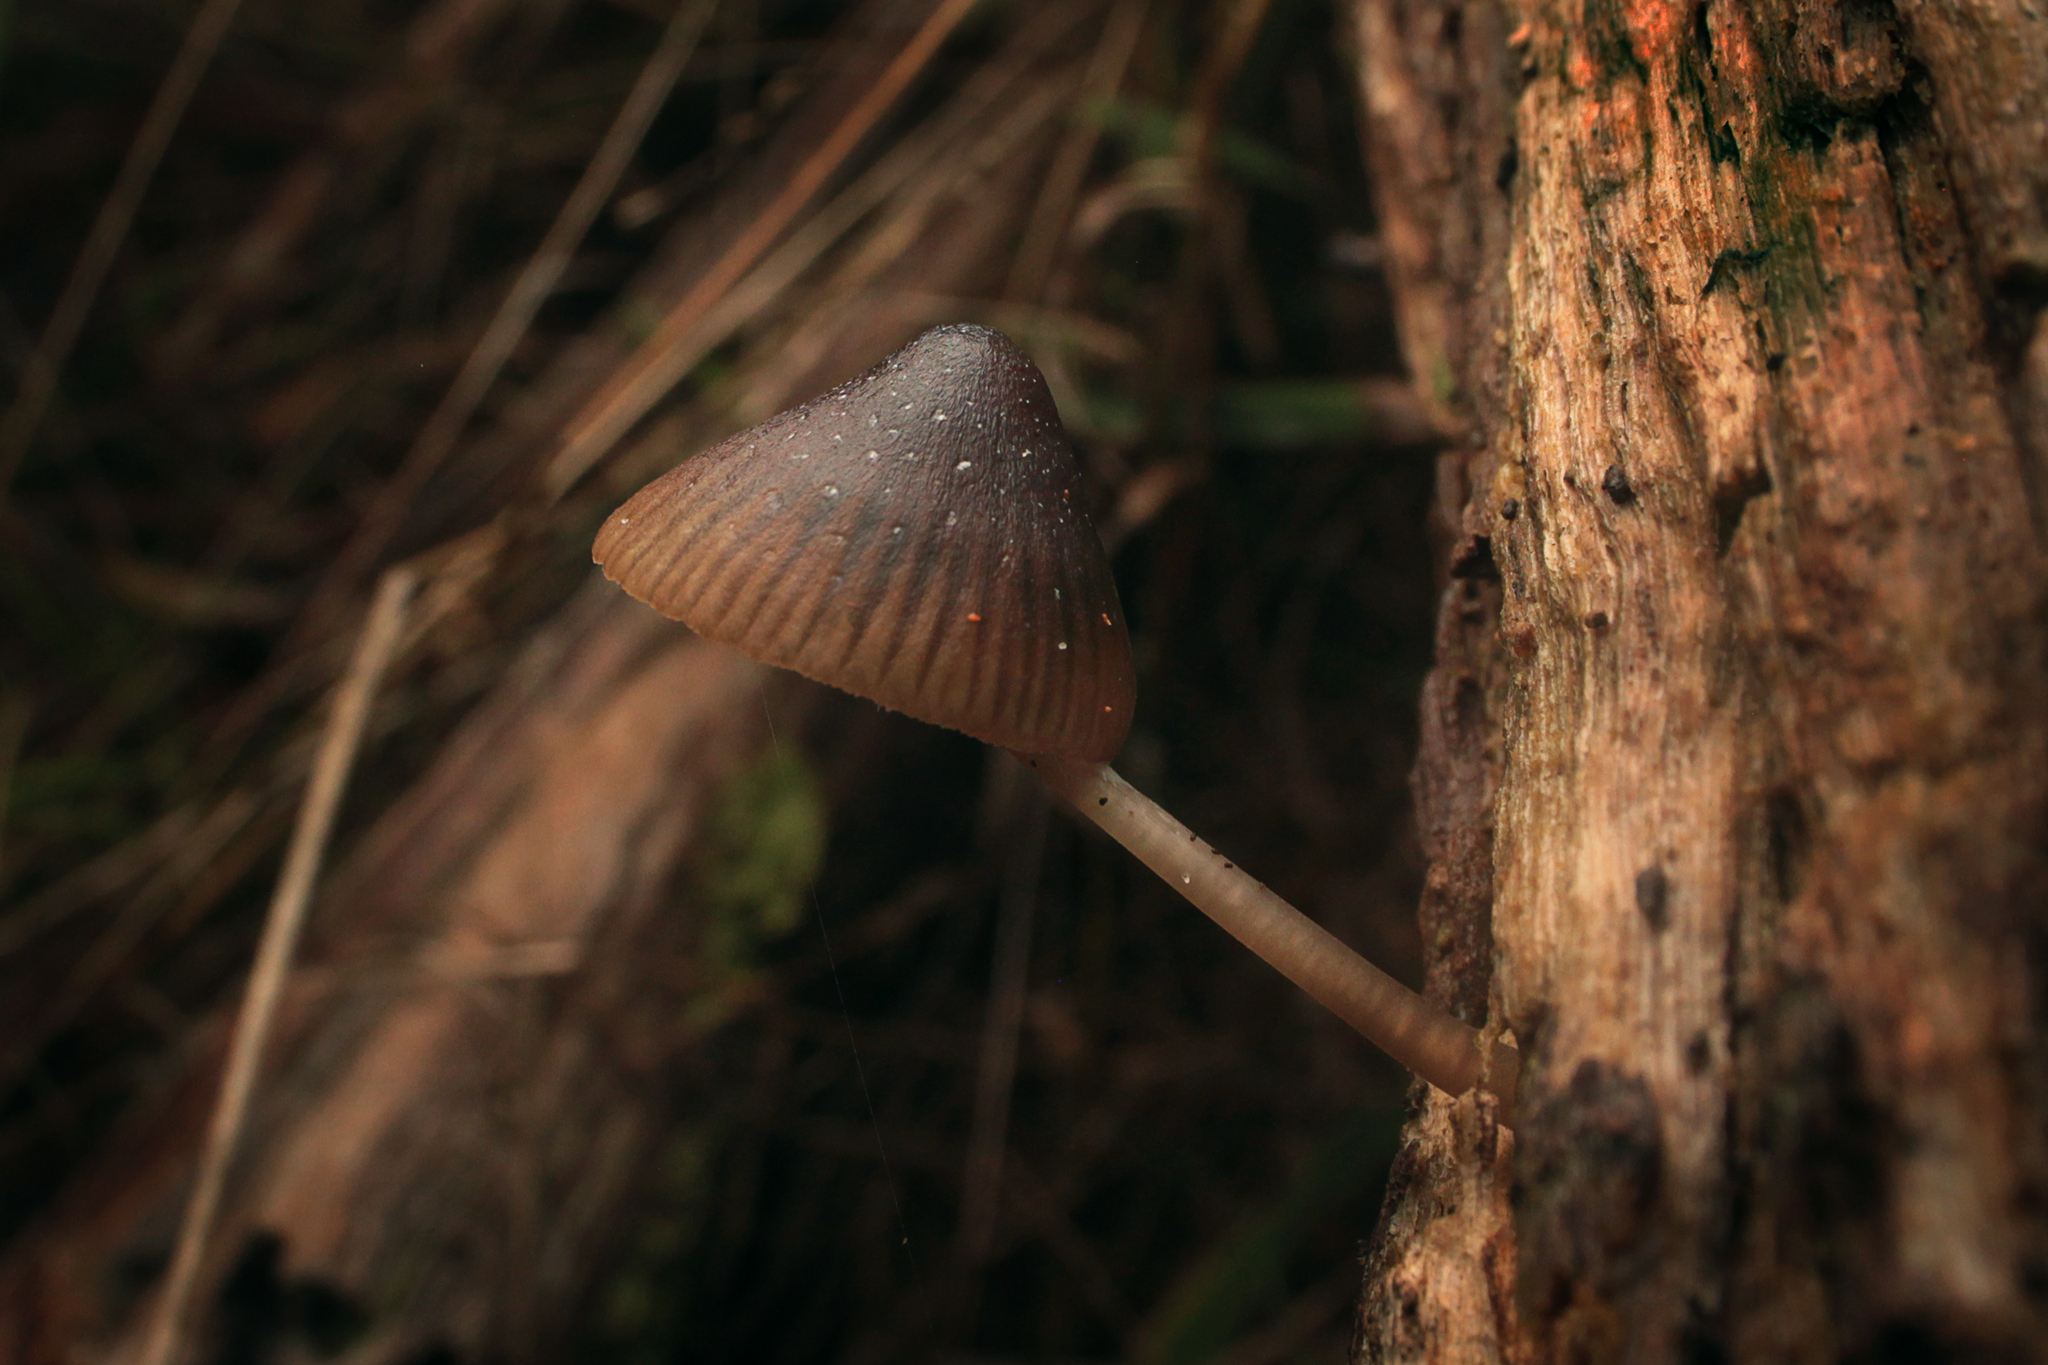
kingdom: Fungi
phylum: Basidiomycota
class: Agaricomycetes
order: Agaricales
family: Mycenaceae
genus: Mycena
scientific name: Mycena nargan
